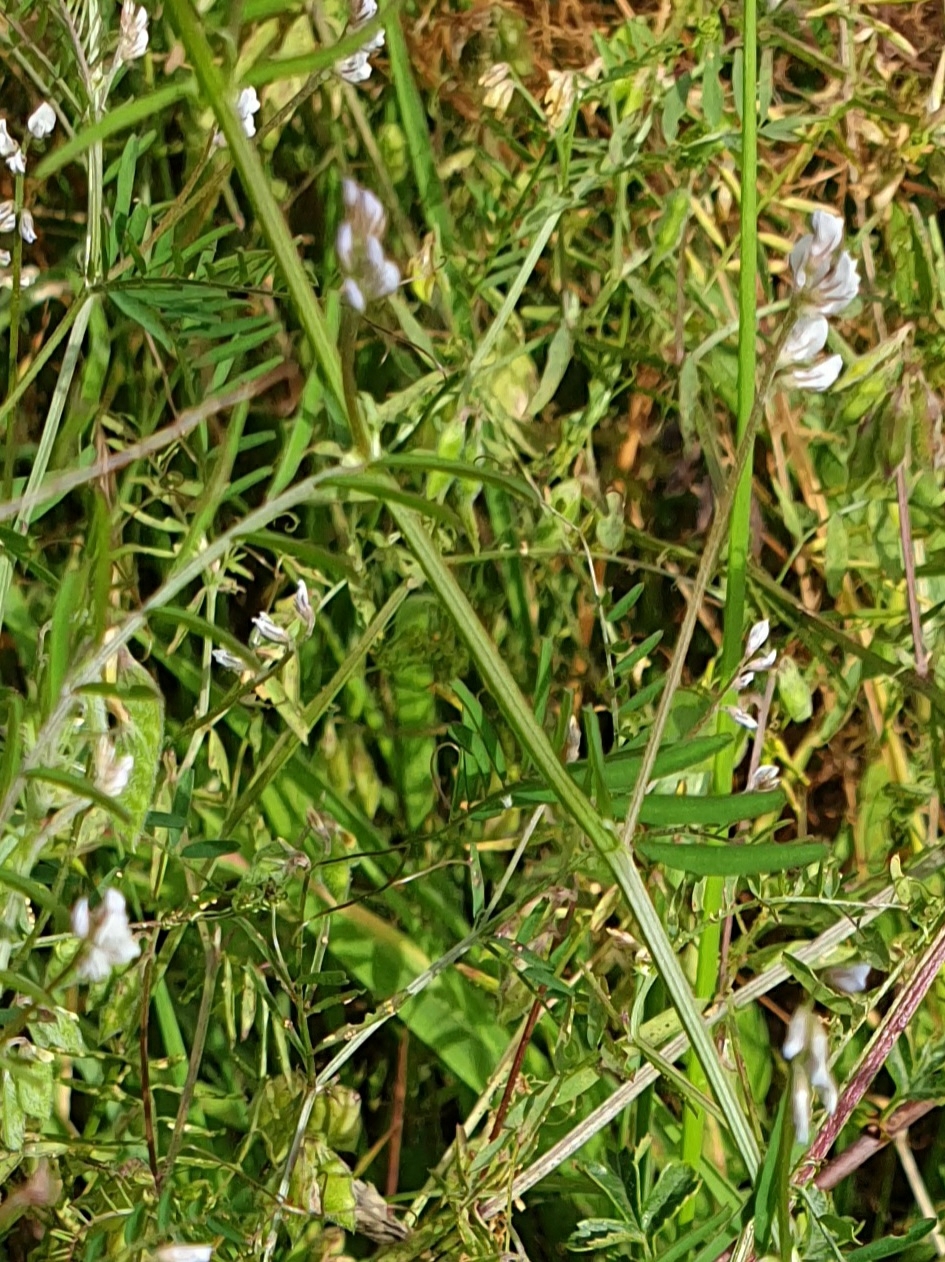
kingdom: Plantae
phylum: Tracheophyta
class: Magnoliopsida
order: Fabales
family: Fabaceae
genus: Vicia
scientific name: Vicia hirsuta
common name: Tiny vetch
